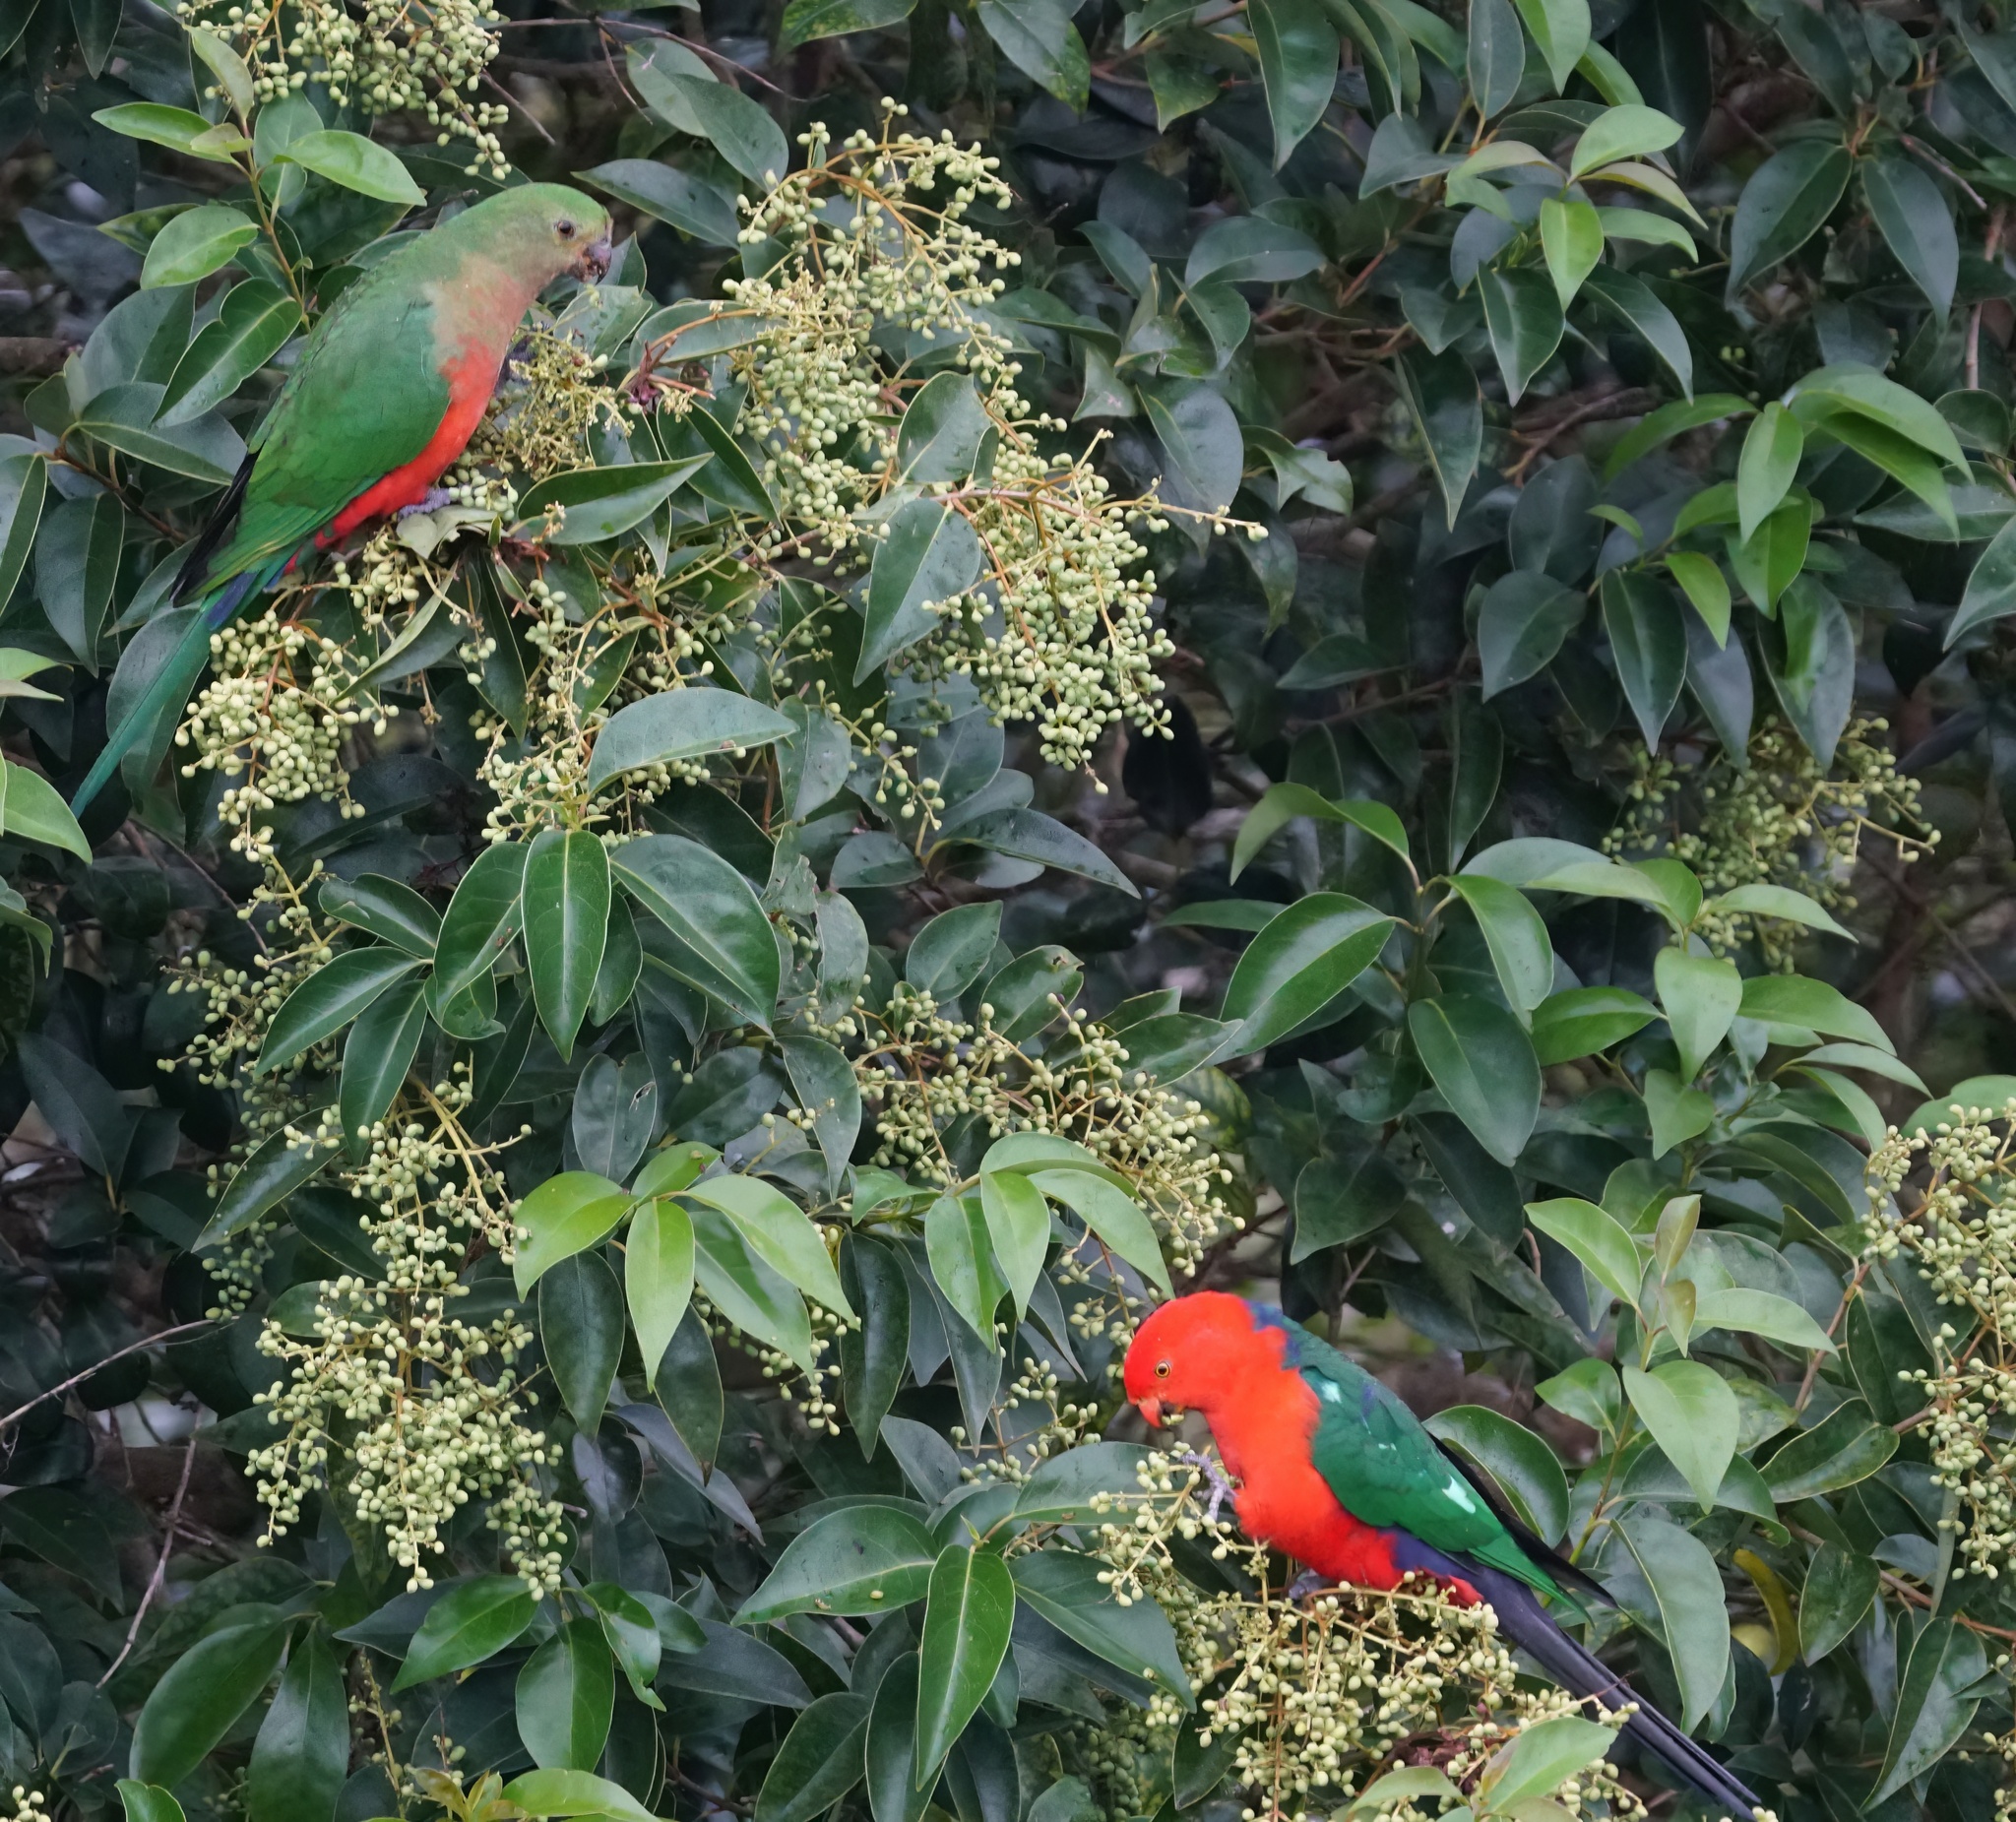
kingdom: Animalia
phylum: Chordata
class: Aves
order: Psittaciformes
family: Psittacidae
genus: Alisterus
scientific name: Alisterus scapularis
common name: Australian king parrot
